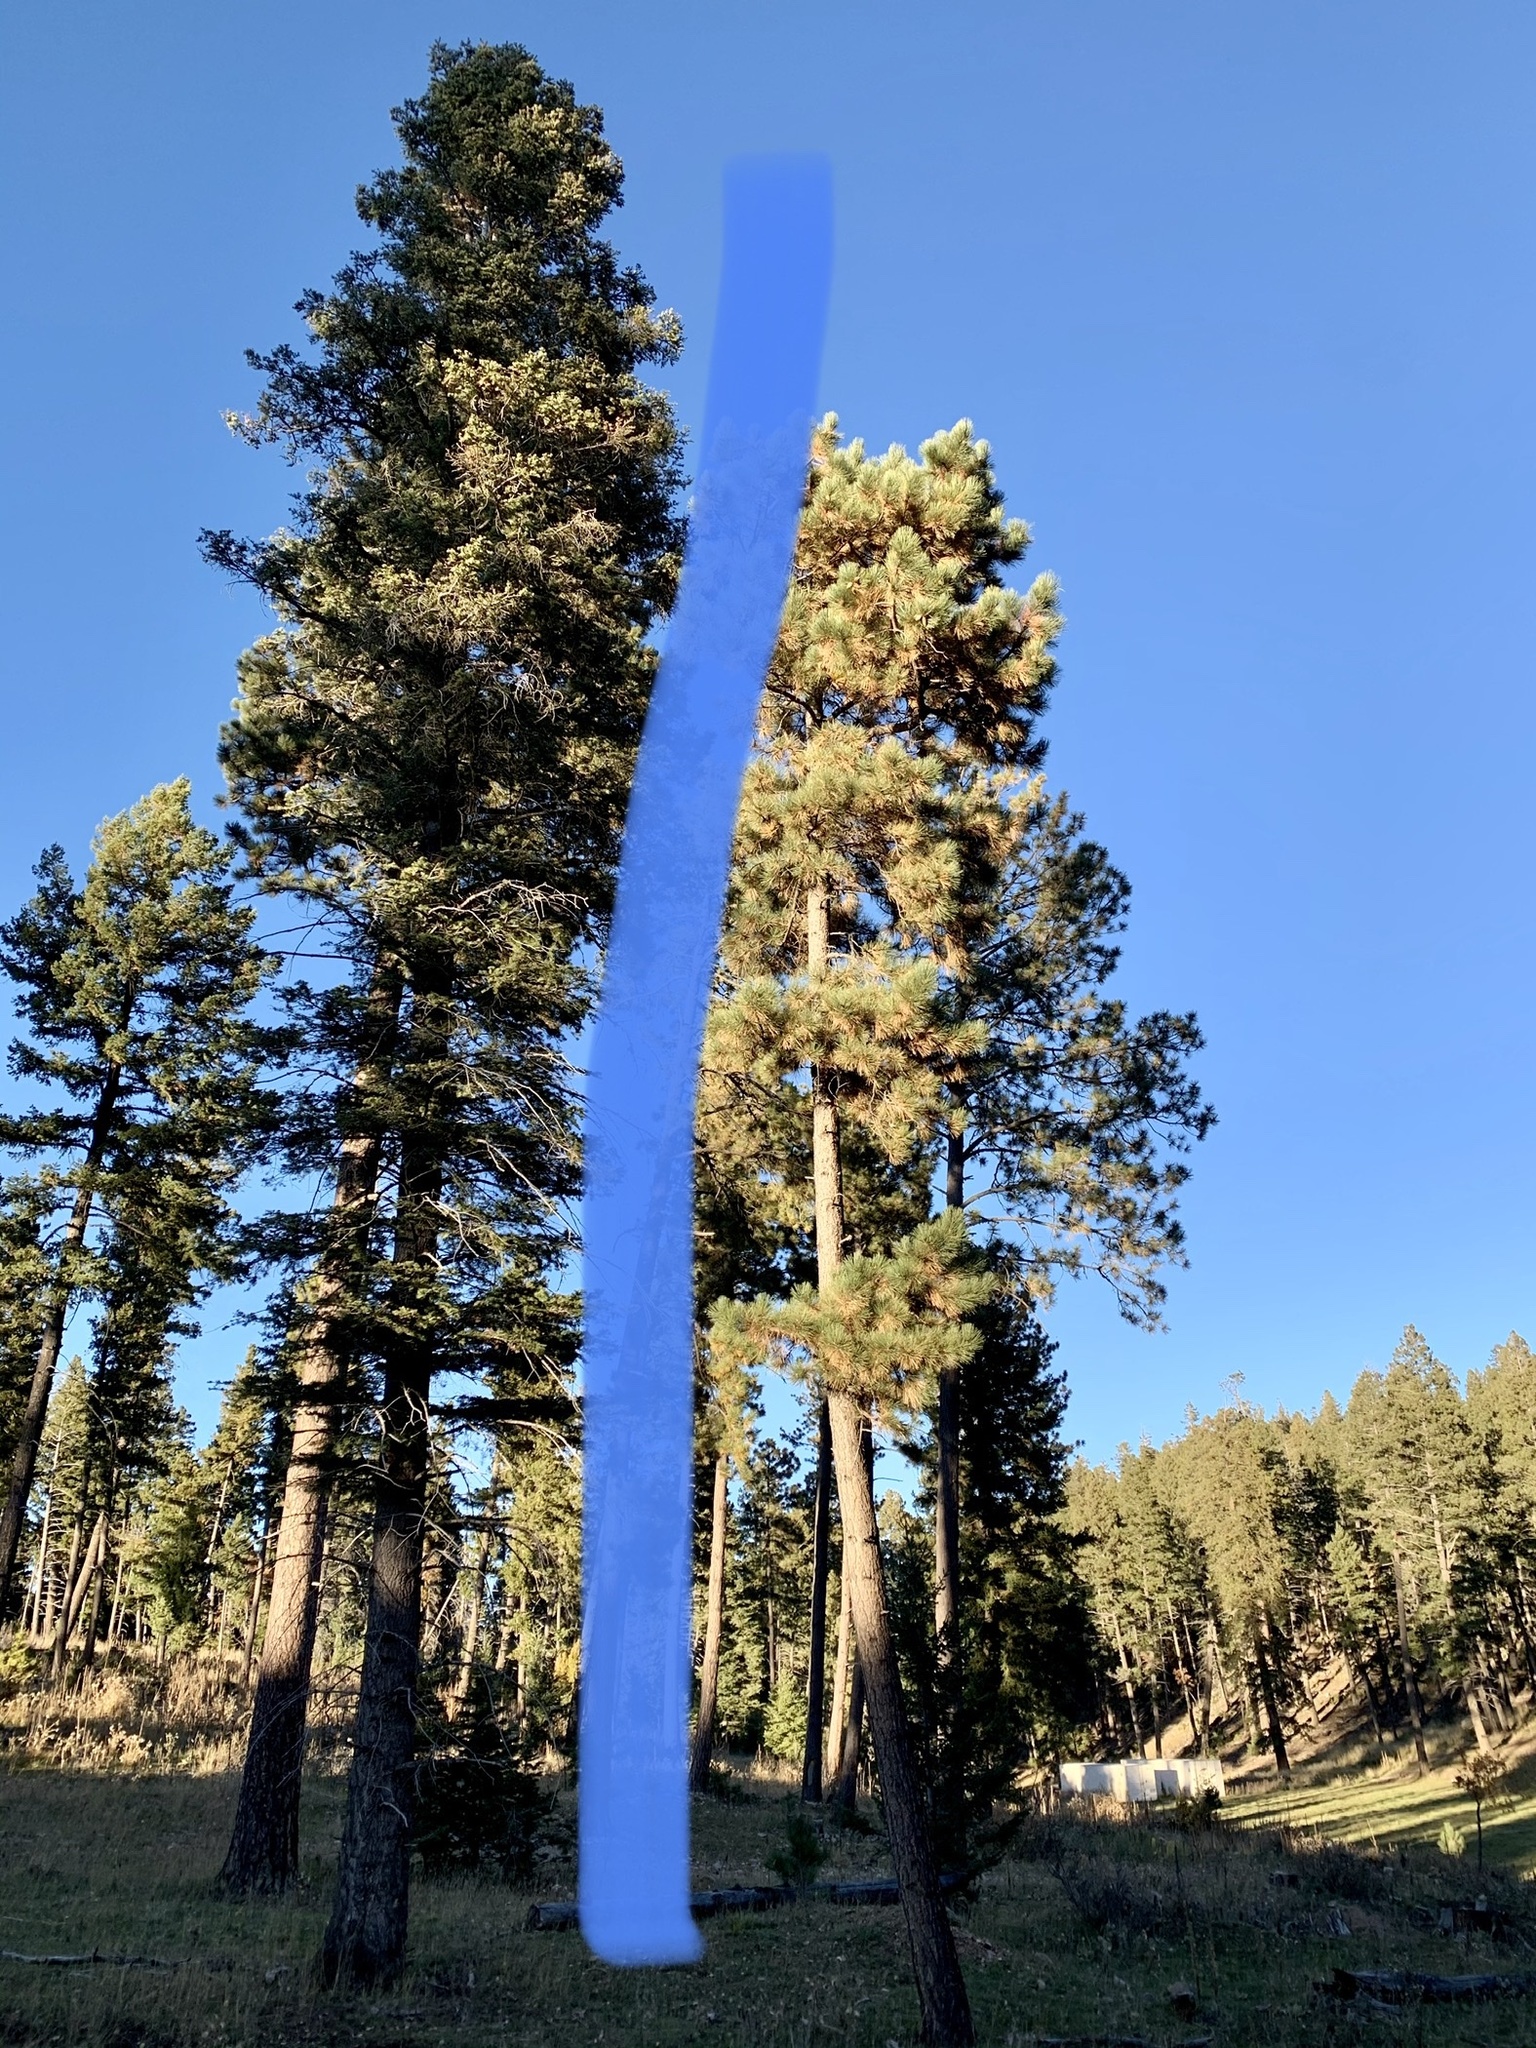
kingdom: Plantae
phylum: Tracheophyta
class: Pinopsida
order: Pinales
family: Pinaceae
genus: Pinus
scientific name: Pinus ponderosa
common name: Western yellow-pine
